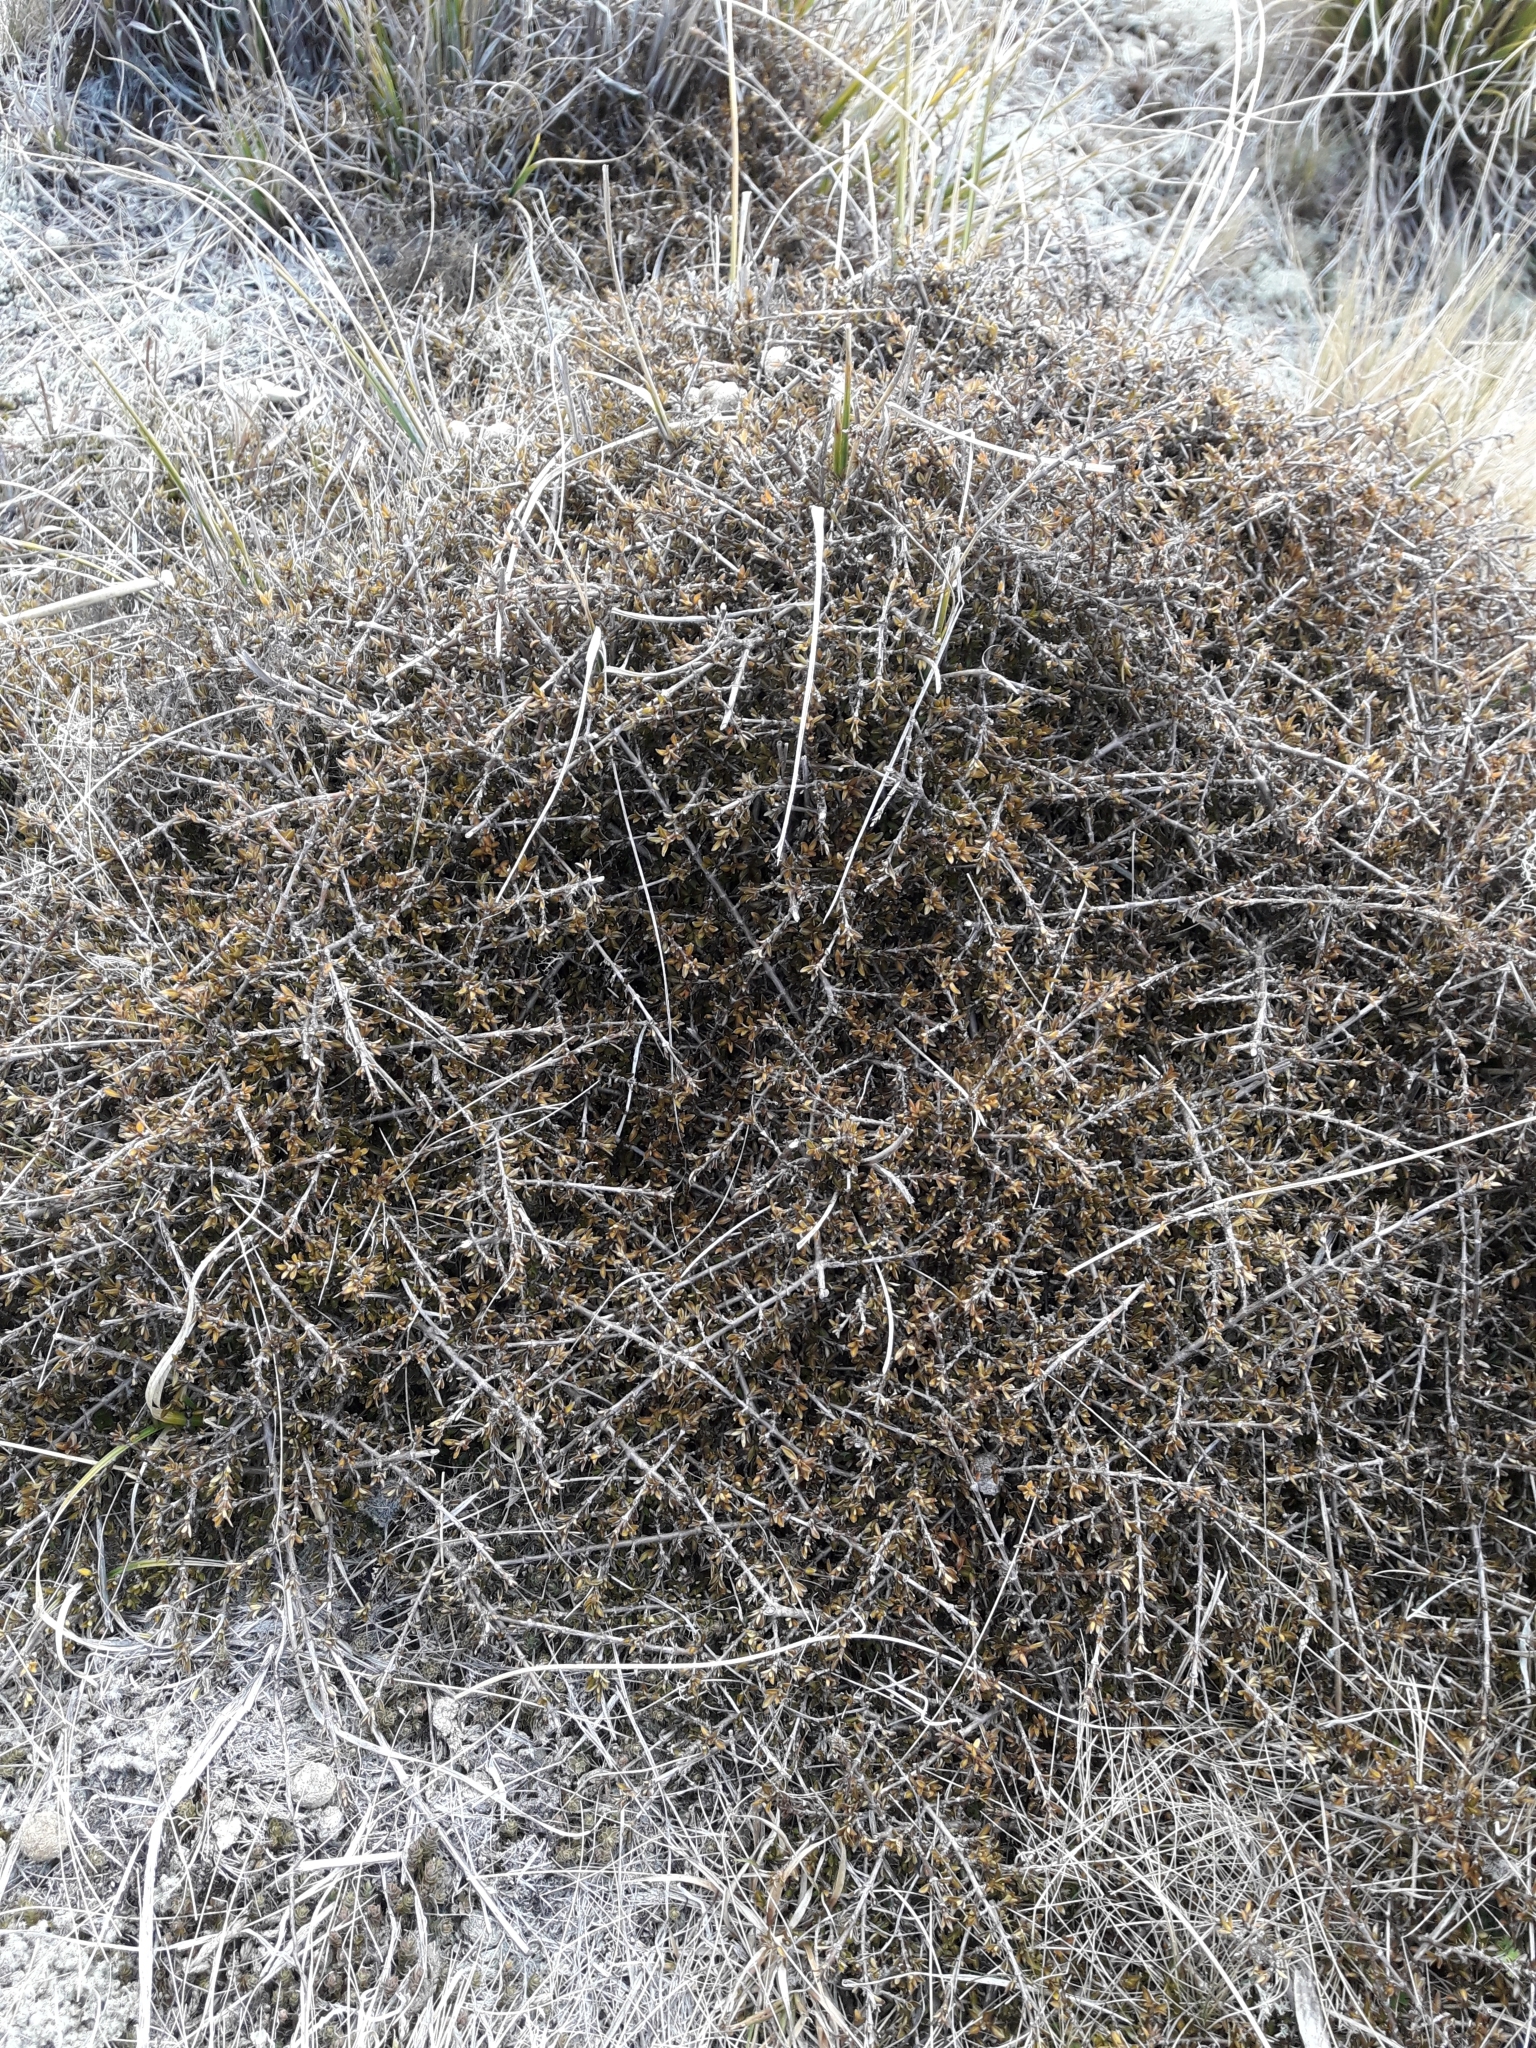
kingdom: Plantae
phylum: Tracheophyta
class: Magnoliopsida
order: Gentianales
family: Rubiaceae
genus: Coprosma
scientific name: Coprosma cheesemanii
